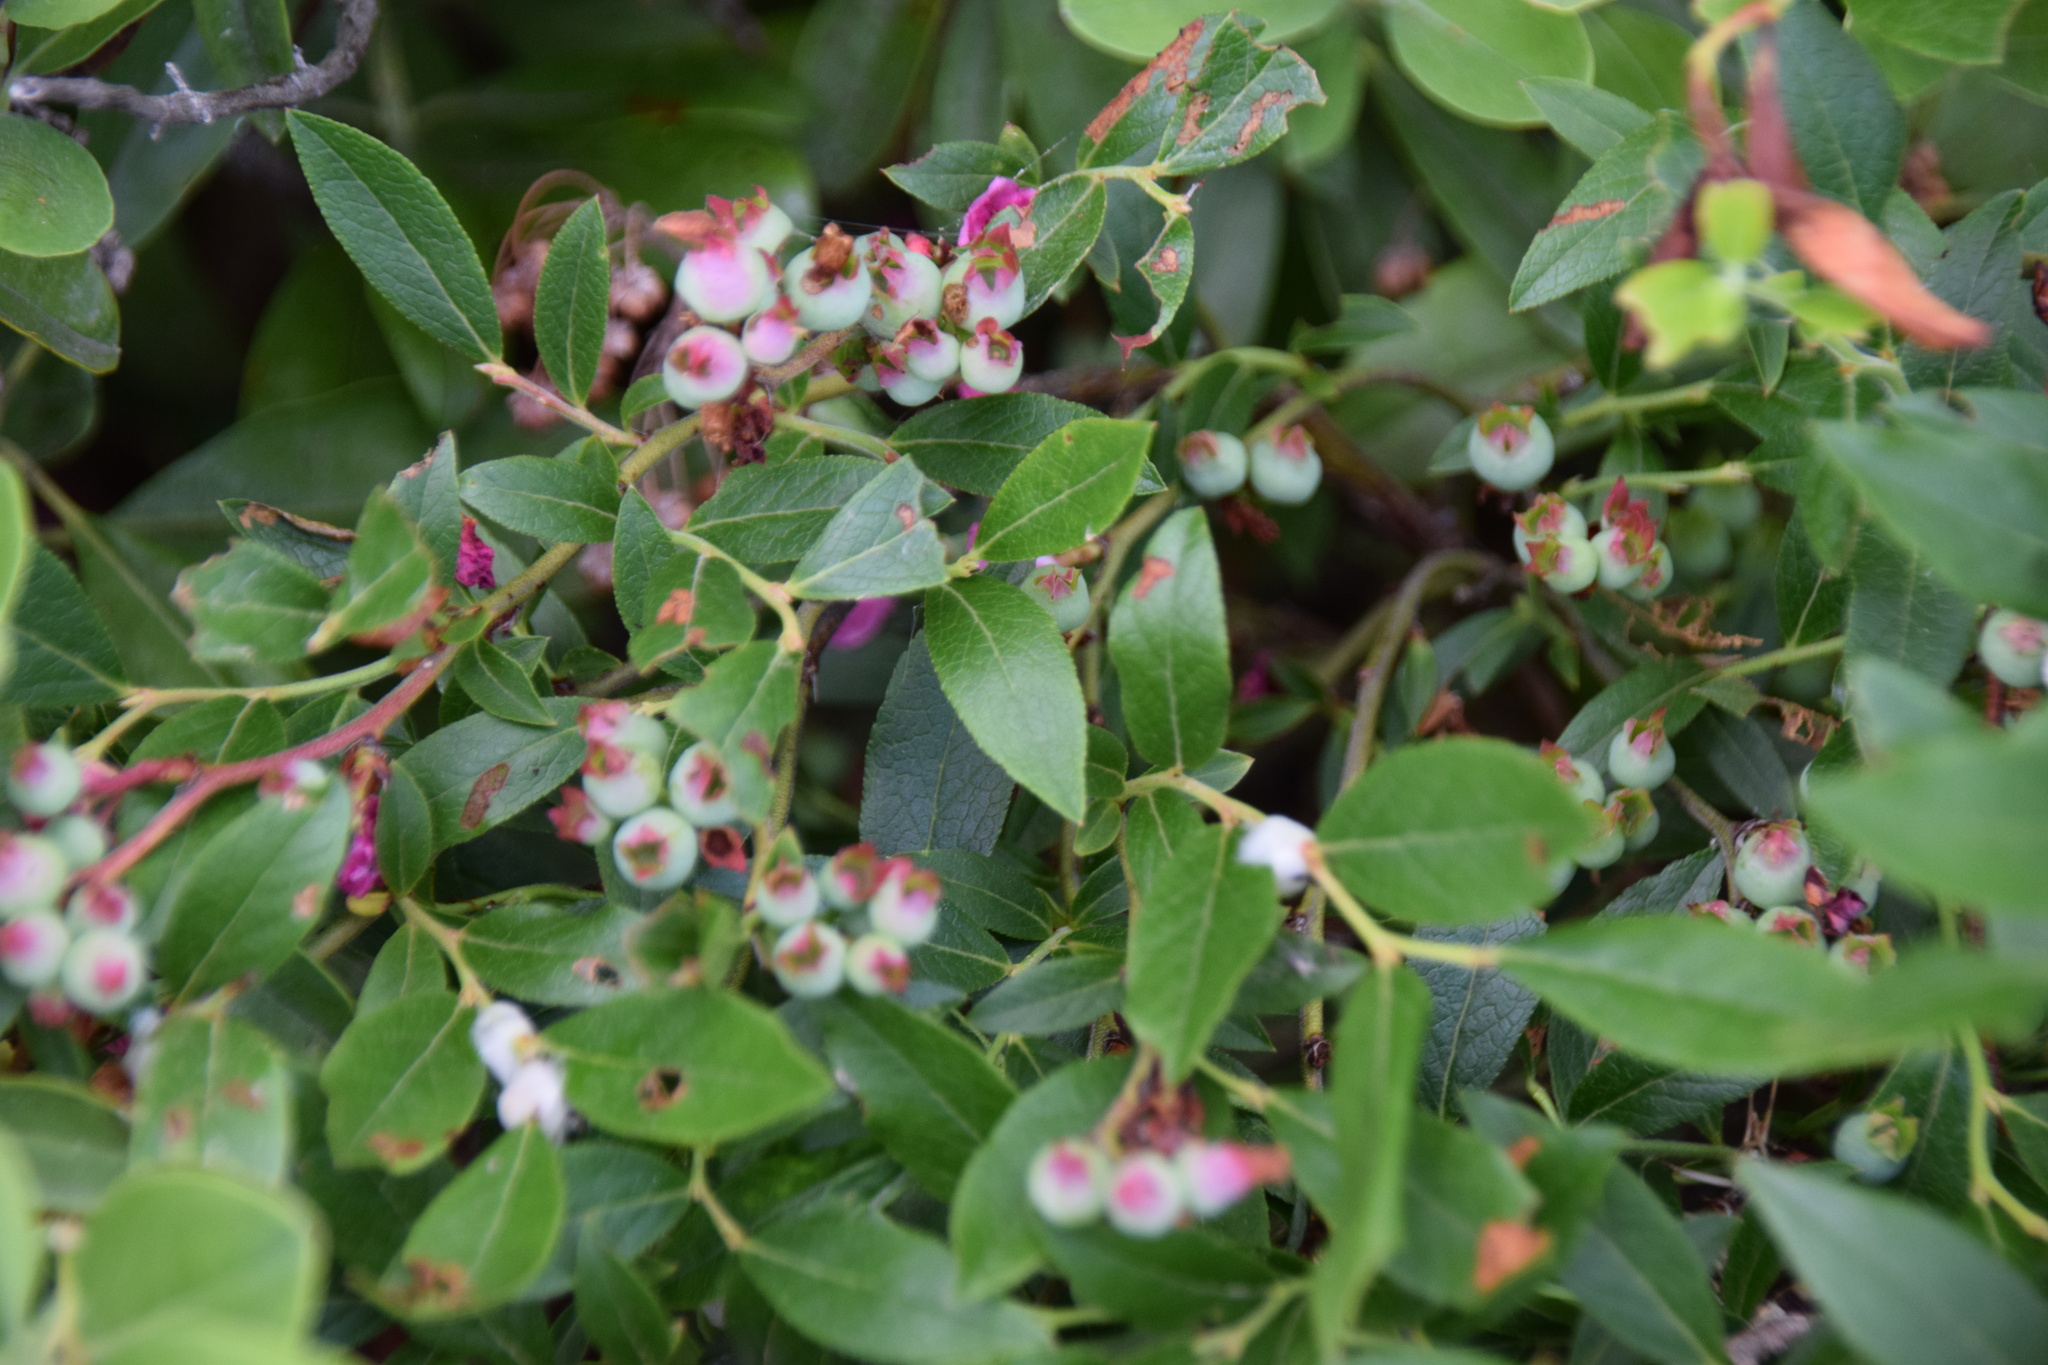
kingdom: Plantae
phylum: Tracheophyta
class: Magnoliopsida
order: Ericales
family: Ericaceae
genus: Vaccinium
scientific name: Vaccinium angustifolium
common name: Early lowbush blueberry
